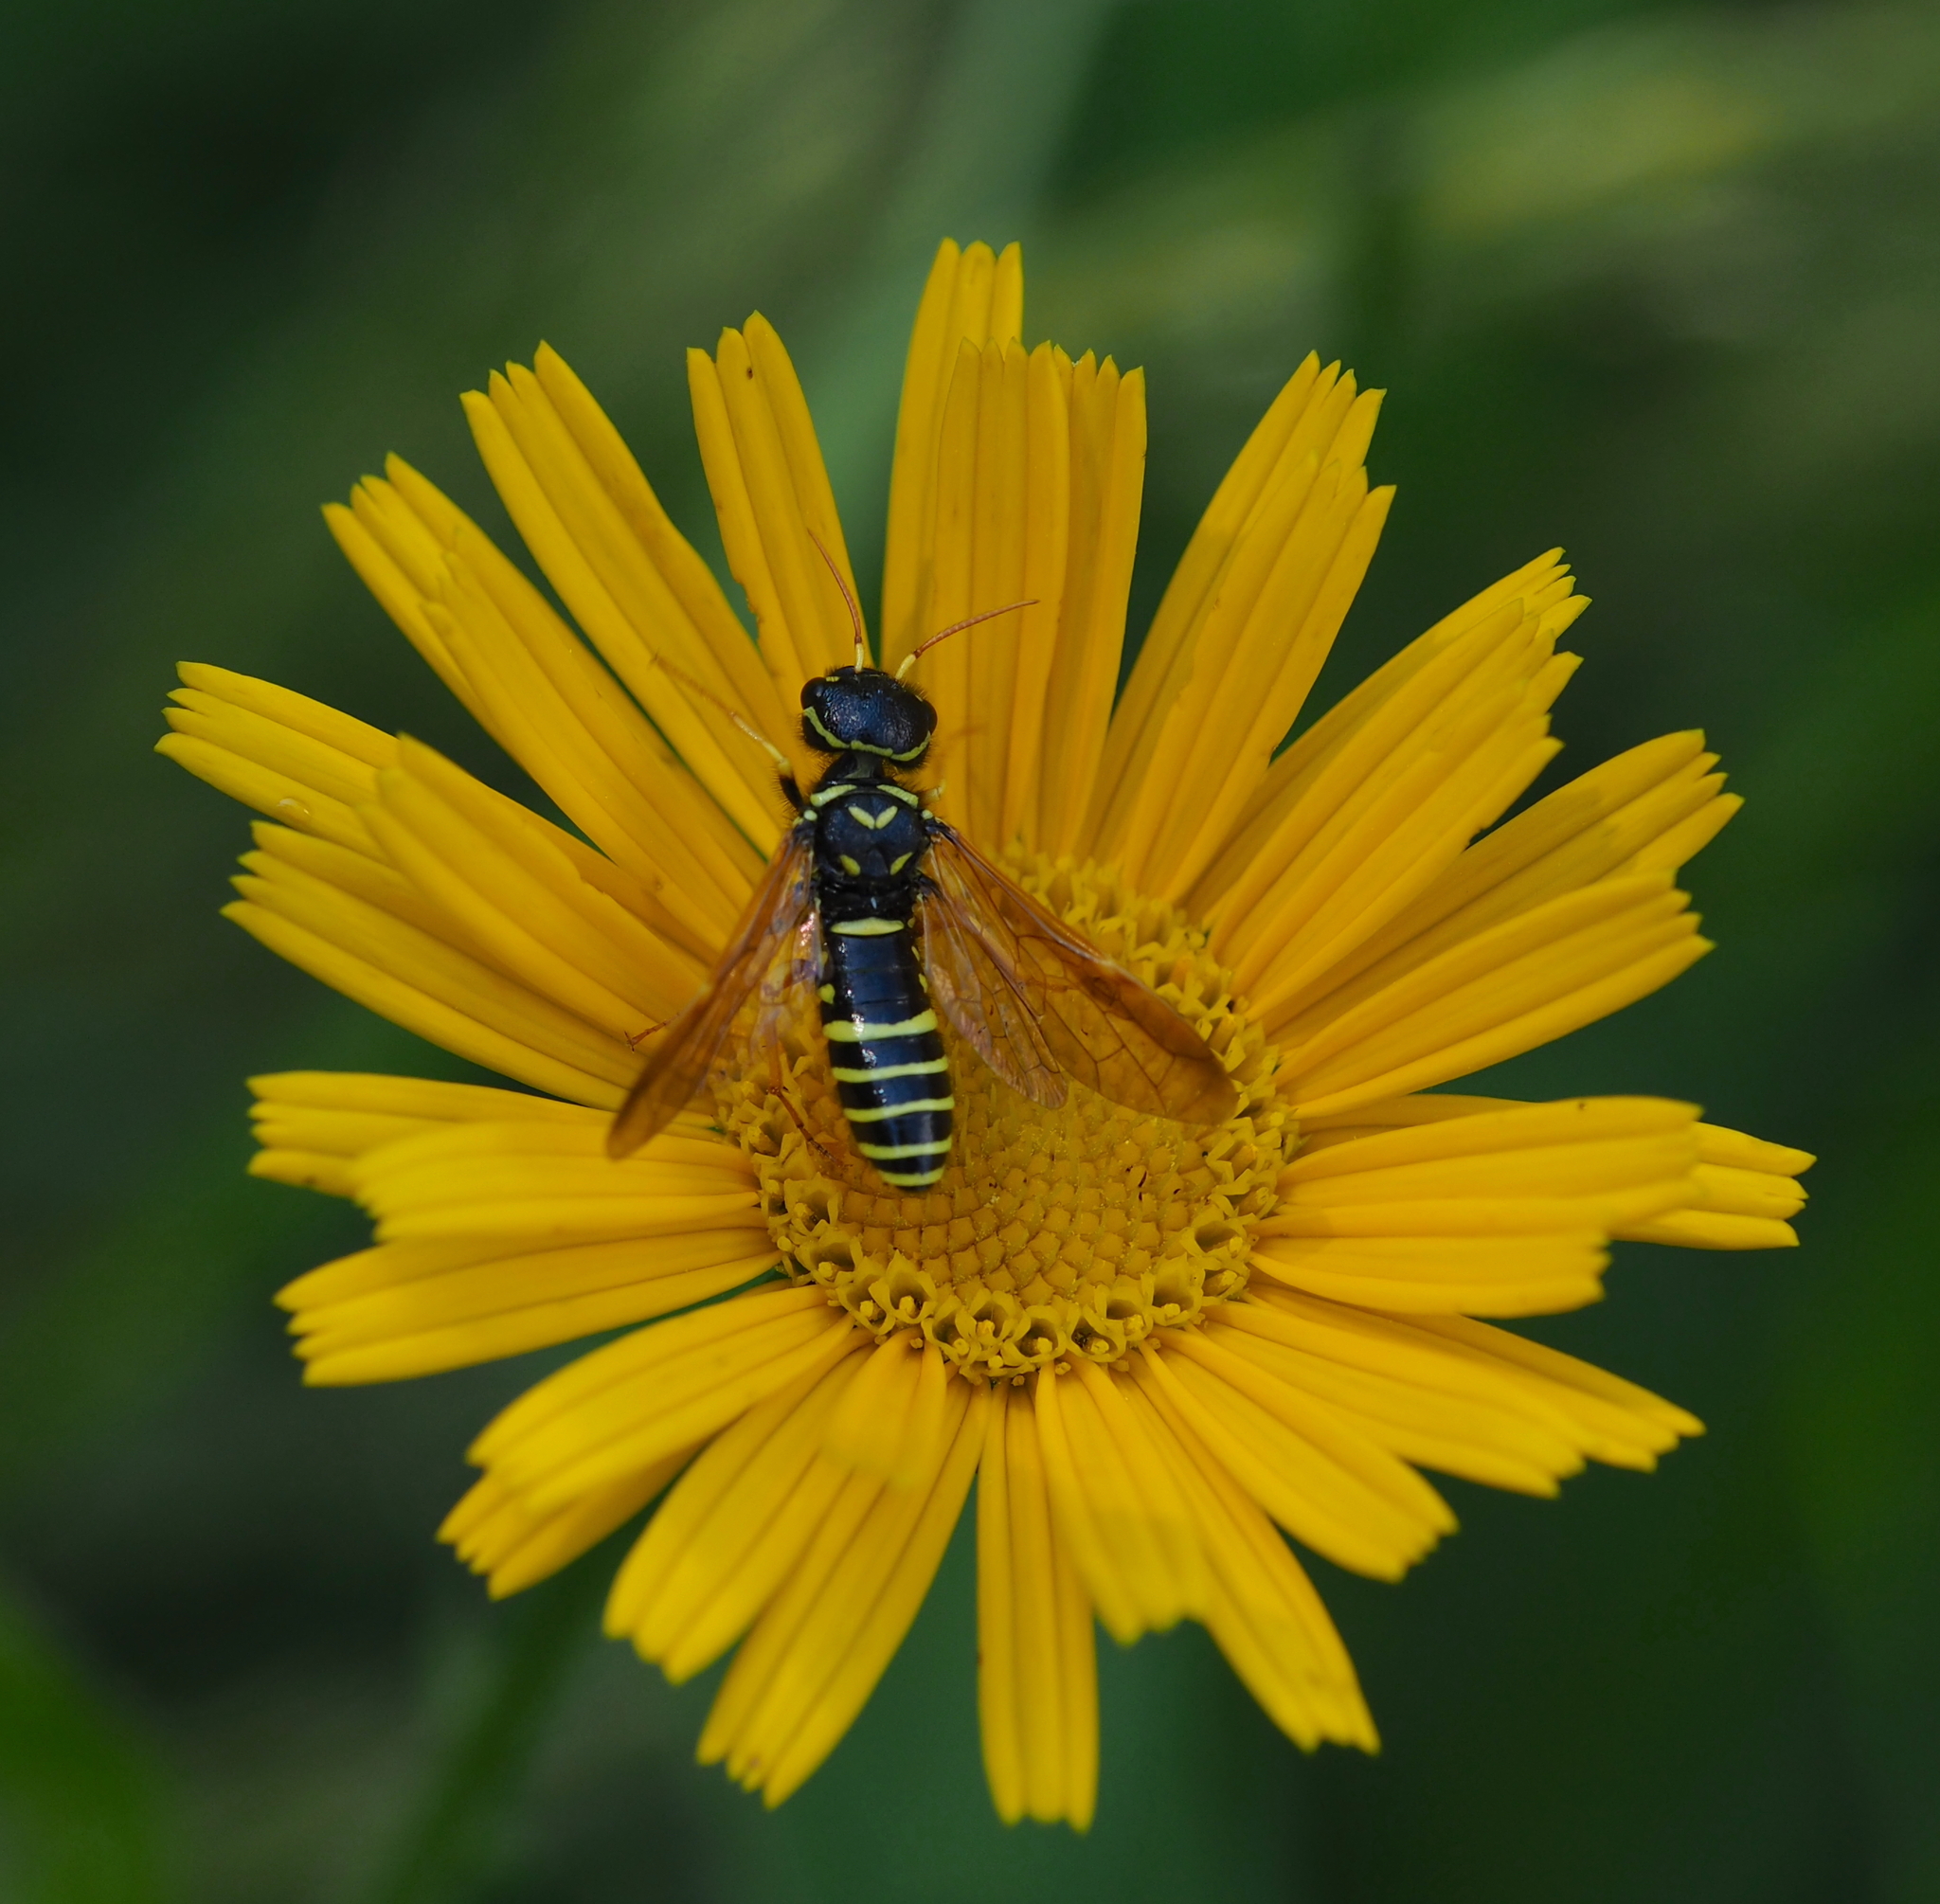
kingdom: Animalia
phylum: Arthropoda
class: Insecta
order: Hymenoptera
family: Megalodontesidae
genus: Megalodontes
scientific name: Megalodontes panzeri
